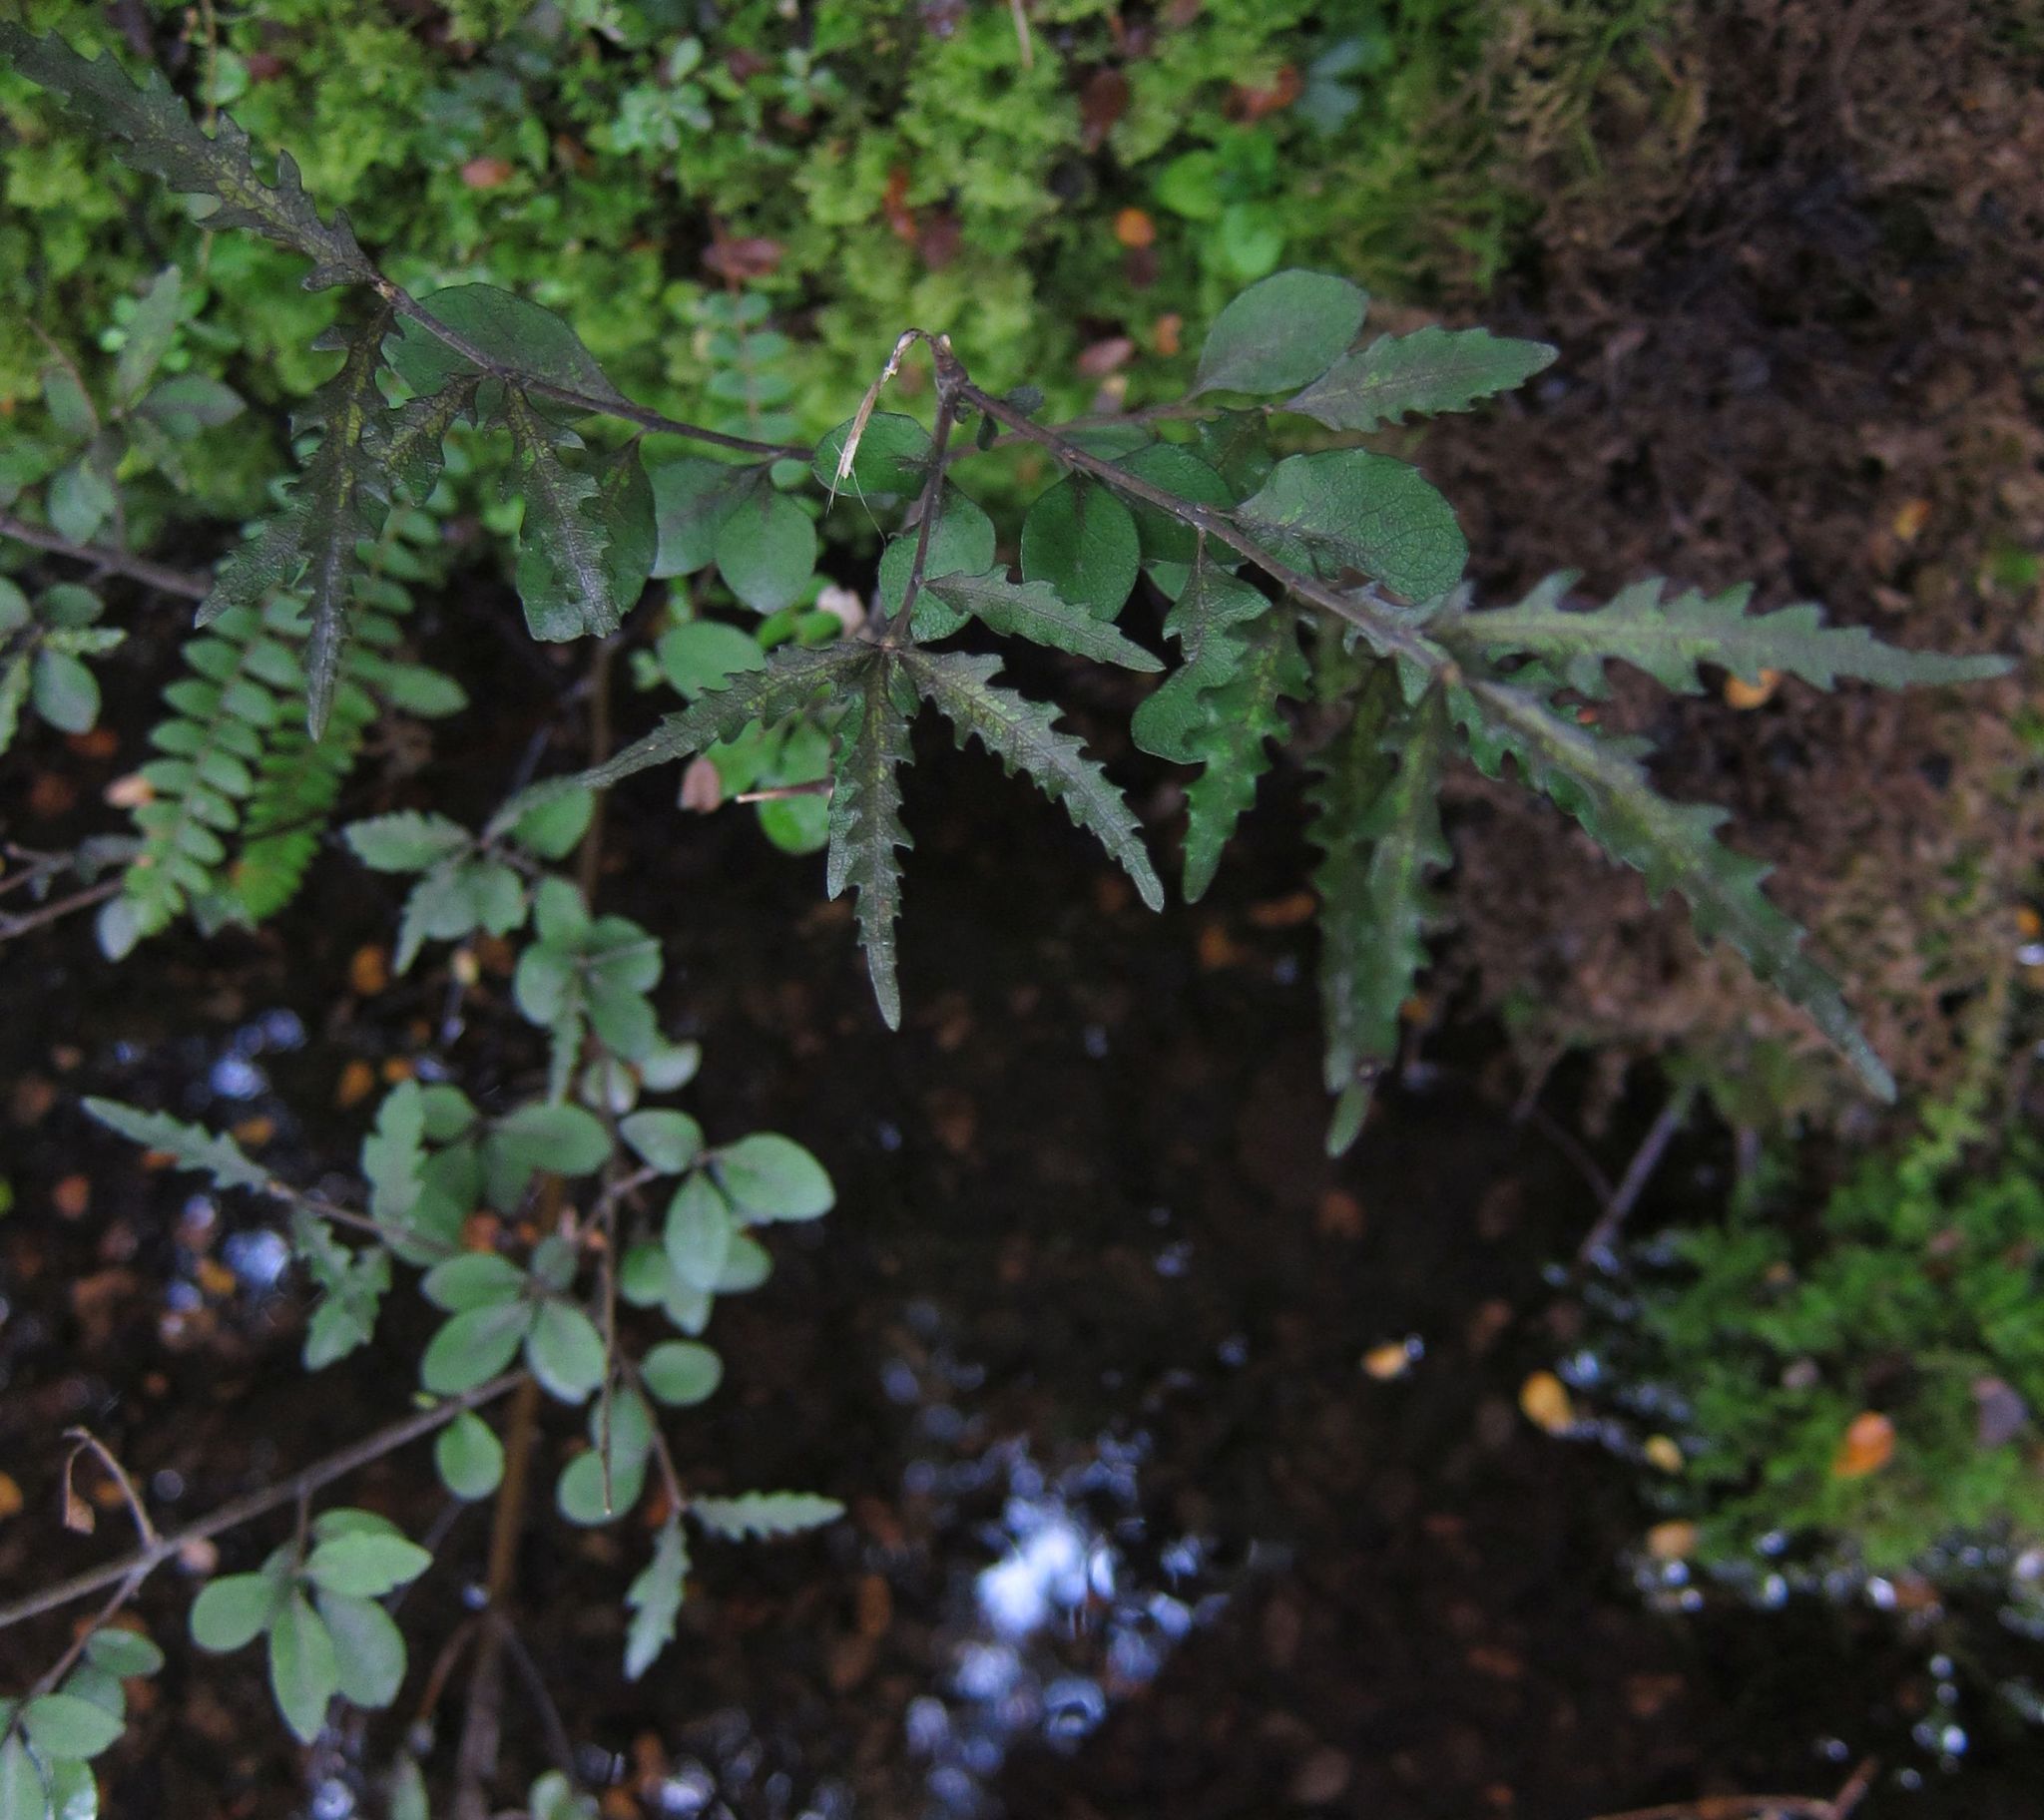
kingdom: Plantae
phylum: Tracheophyta
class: Magnoliopsida
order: Oxalidales
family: Elaeocarpaceae
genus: Elaeocarpus
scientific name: Elaeocarpus hookerianus
